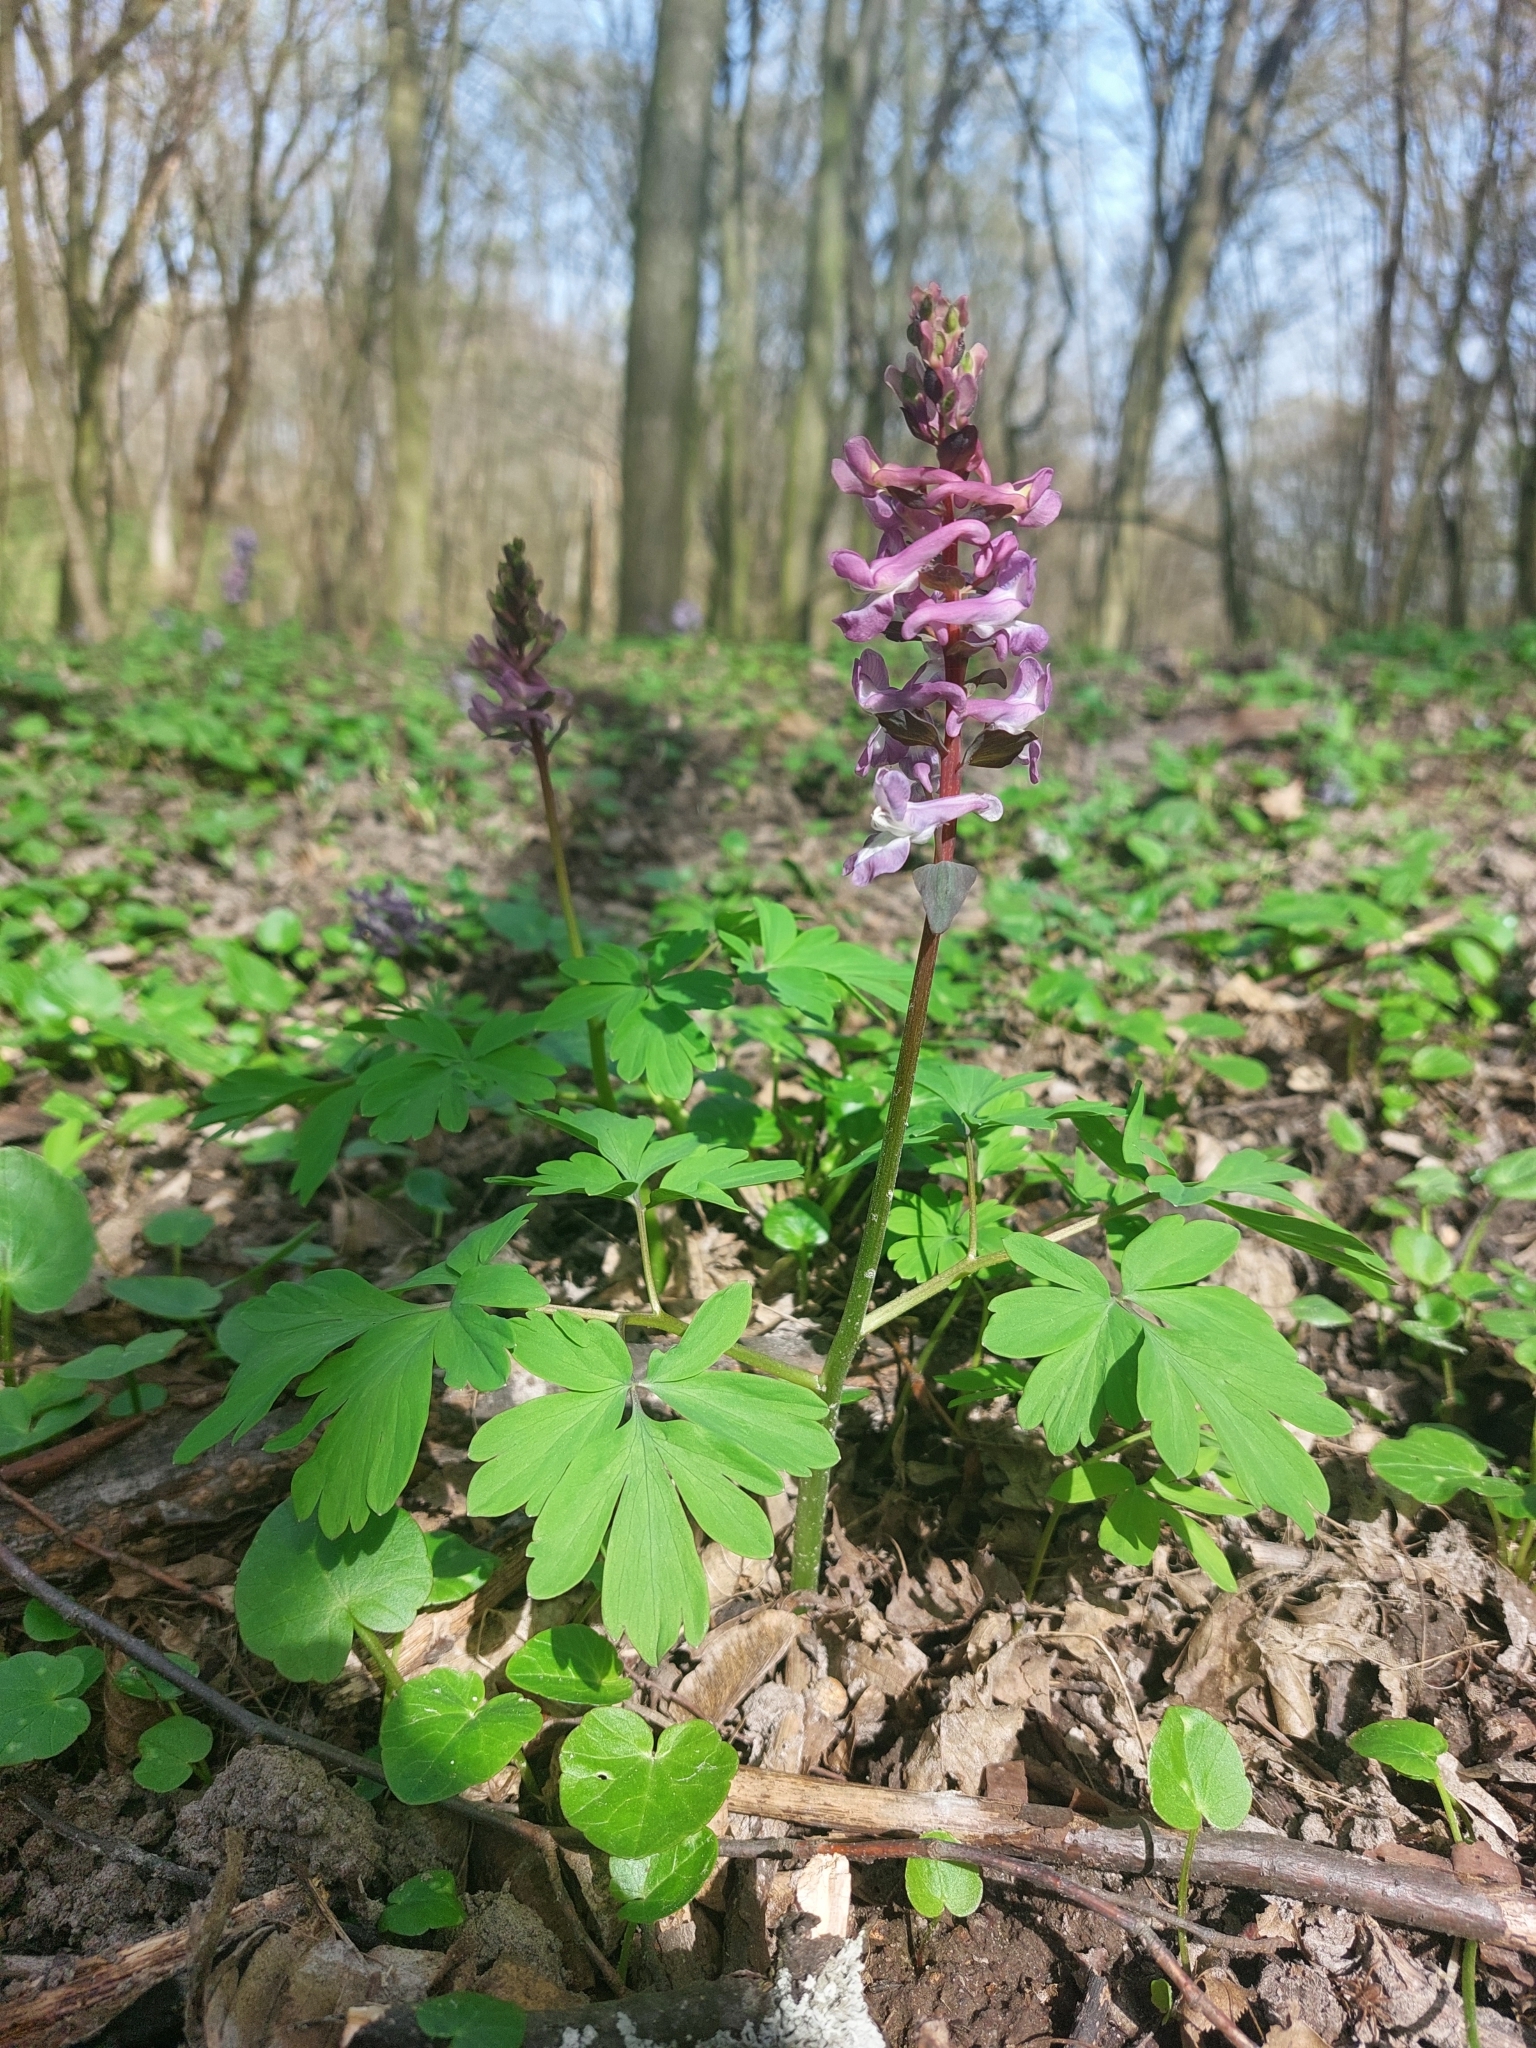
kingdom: Plantae
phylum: Tracheophyta
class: Magnoliopsida
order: Ranunculales
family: Papaveraceae
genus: Corydalis
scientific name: Corydalis cava
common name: Hollowroot
